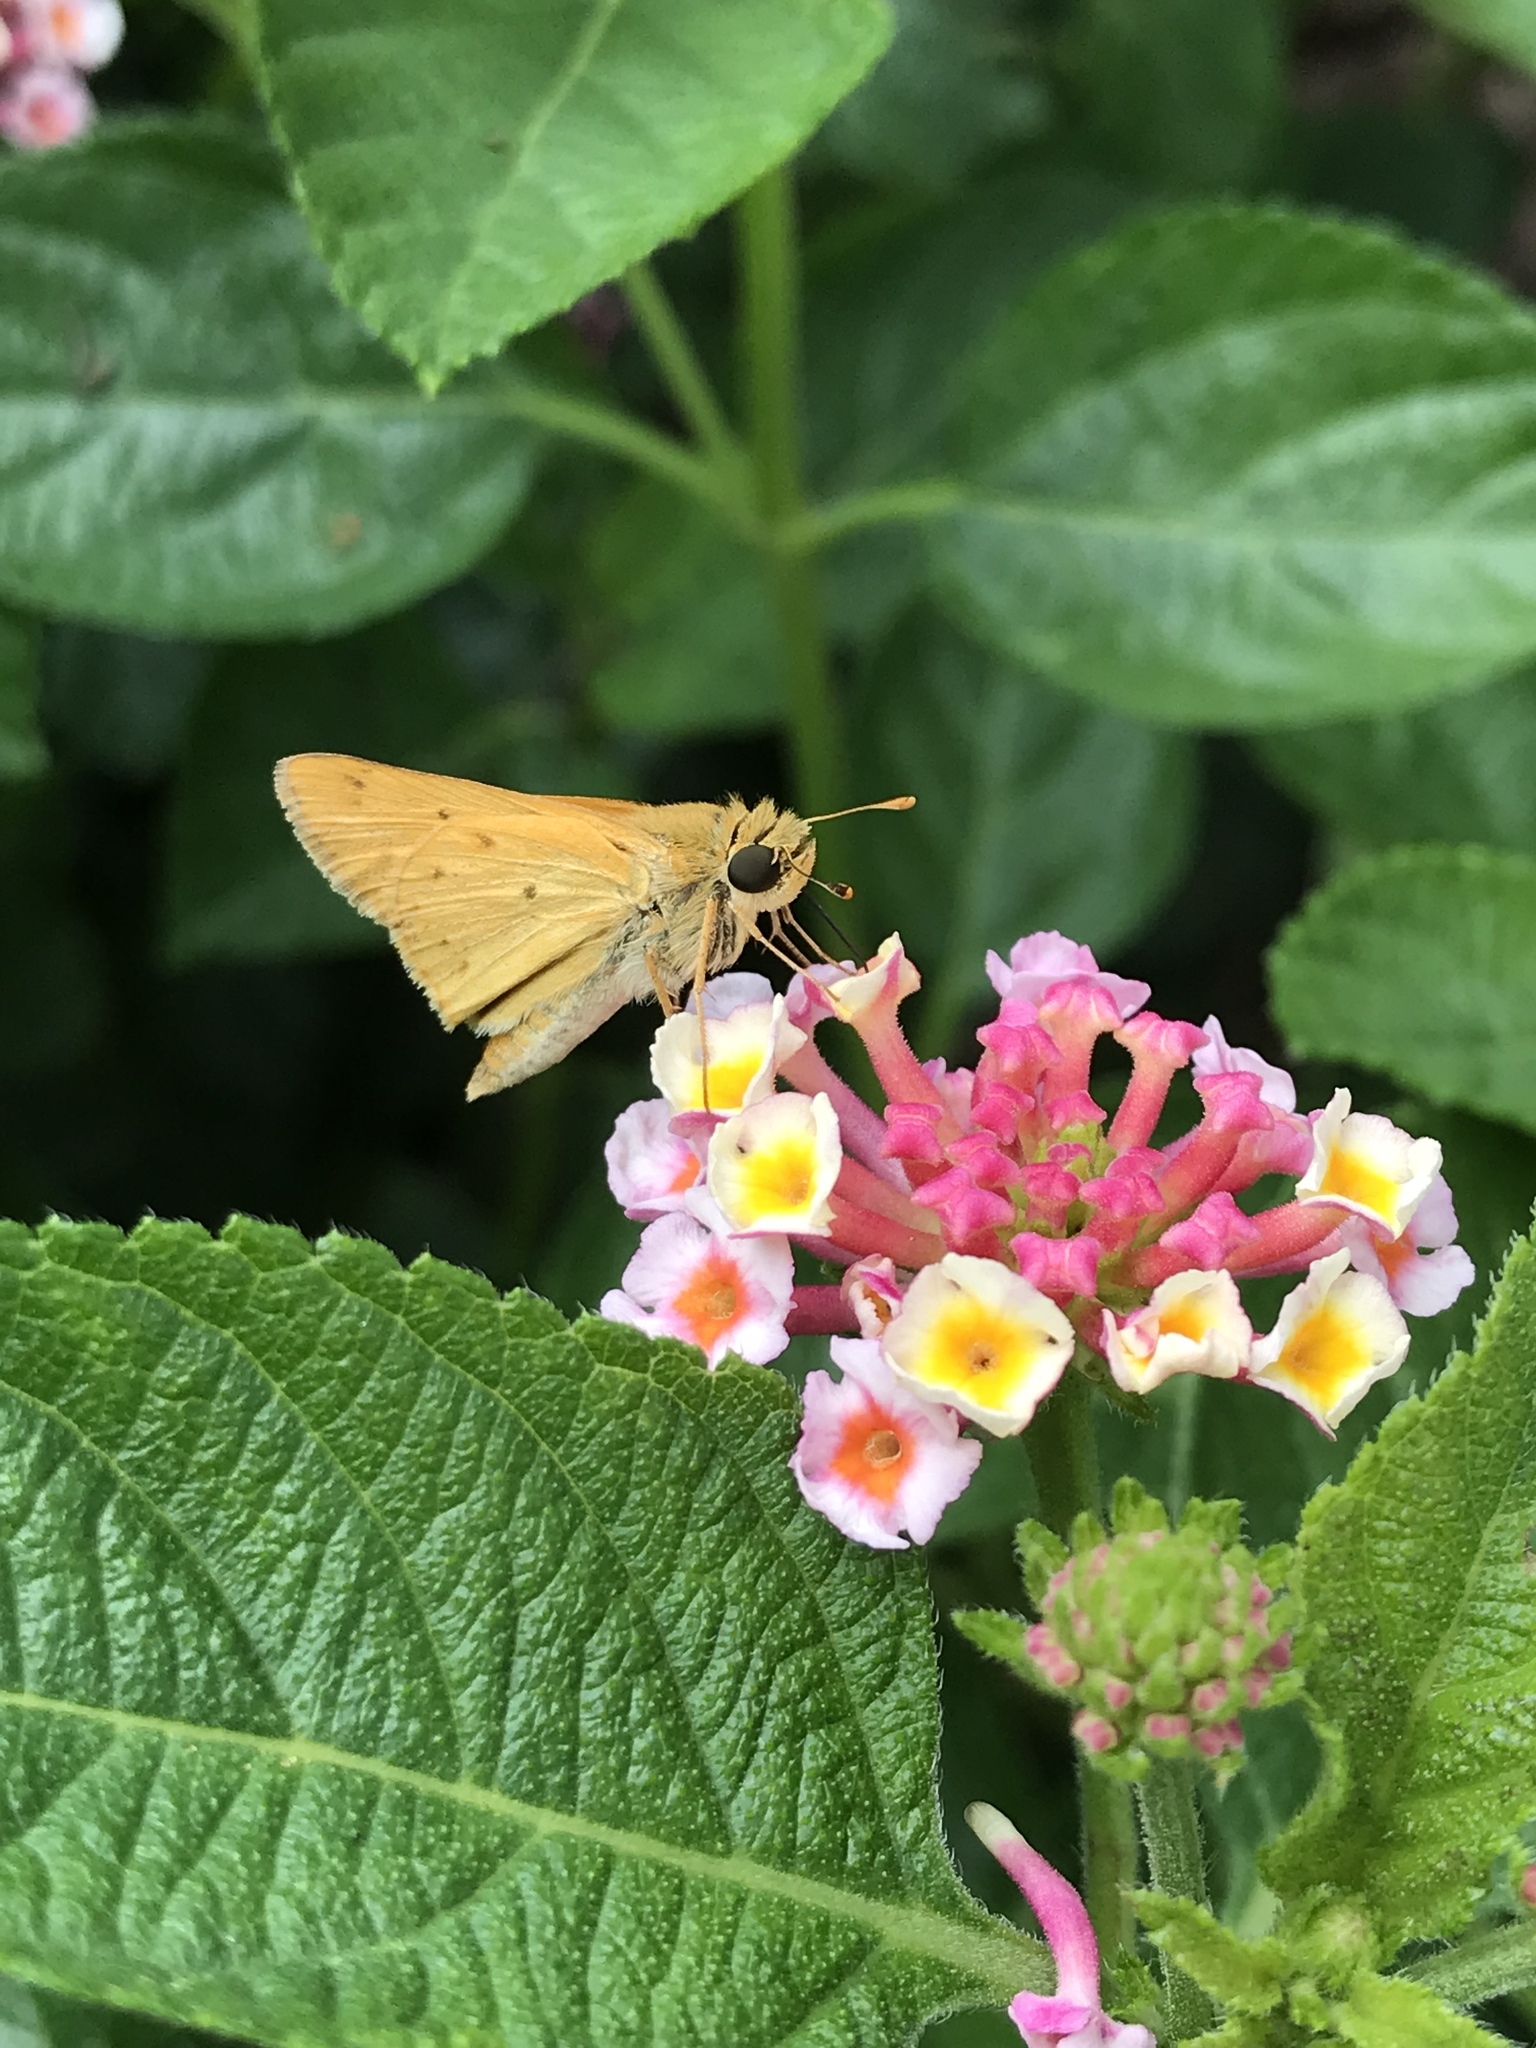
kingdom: Animalia
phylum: Arthropoda
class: Insecta
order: Lepidoptera
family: Hesperiidae
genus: Hylephila
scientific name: Hylephila phyleus
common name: Fiery skipper
